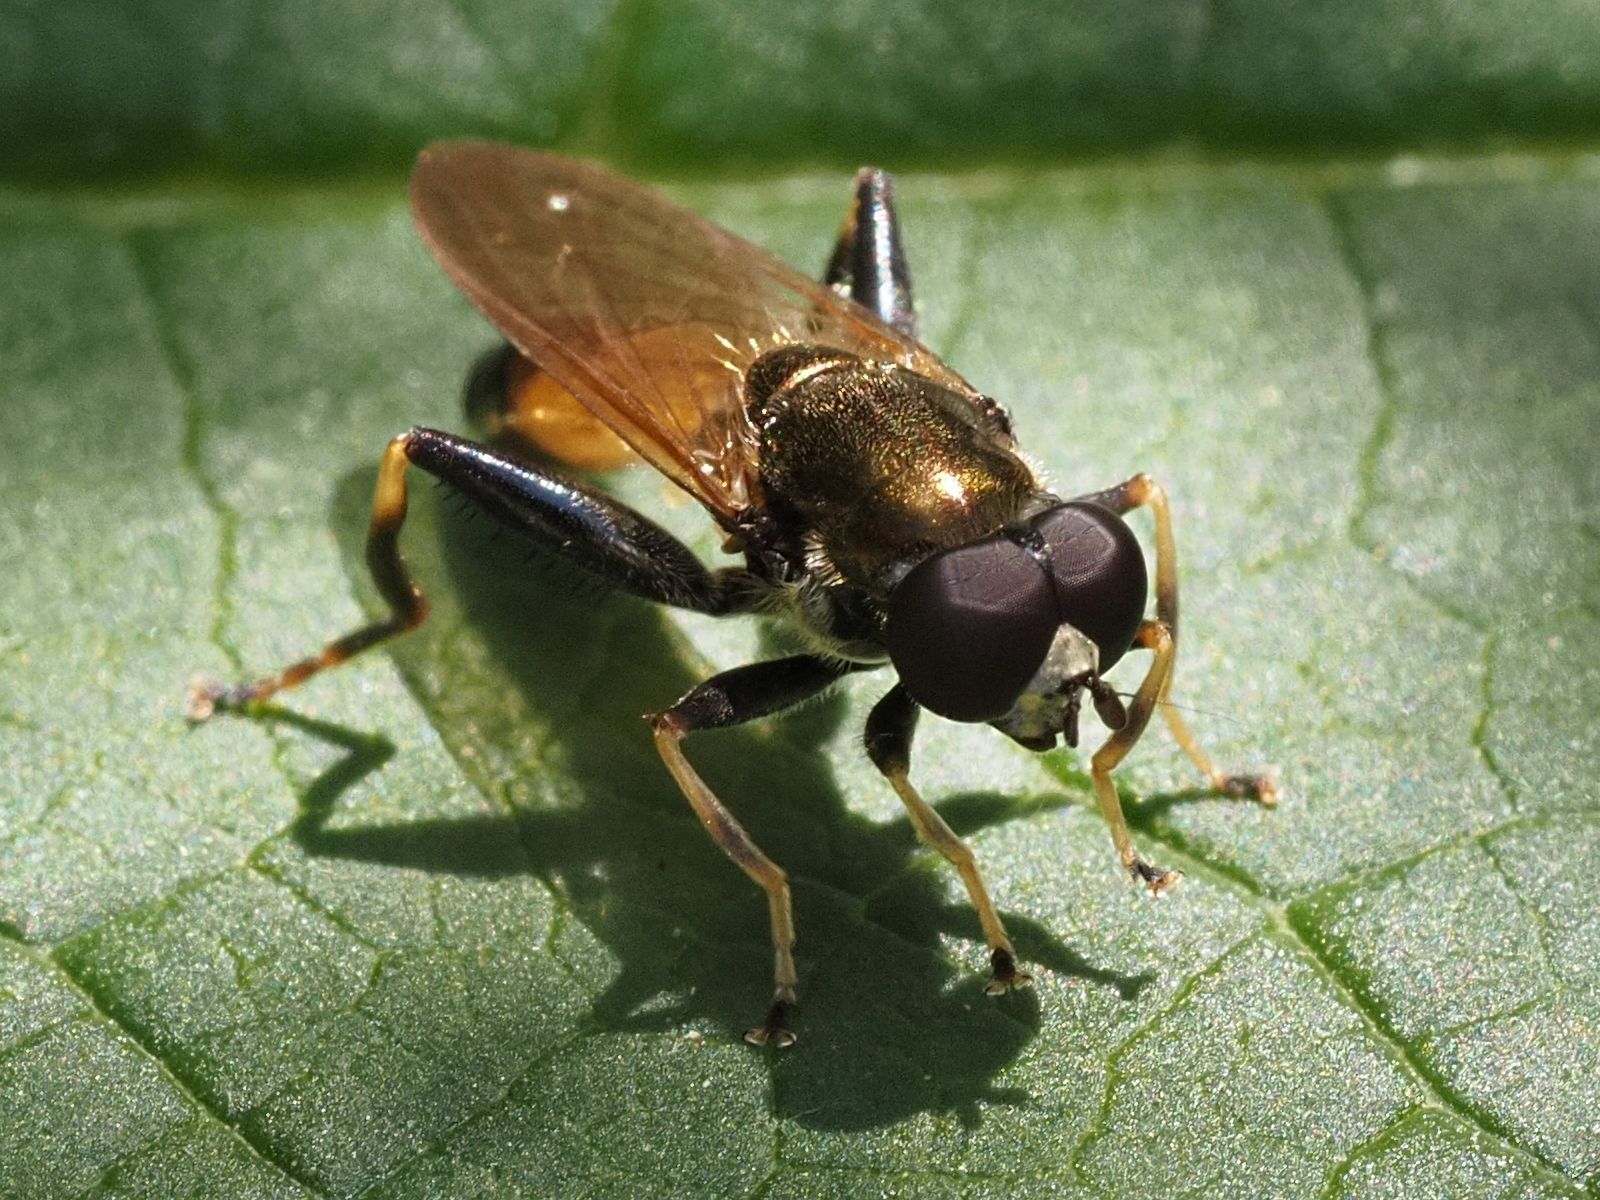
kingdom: Animalia
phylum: Arthropoda
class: Insecta
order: Diptera
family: Syrphidae
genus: Xylota
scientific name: Xylota segnis
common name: Brown-toed forest fly
